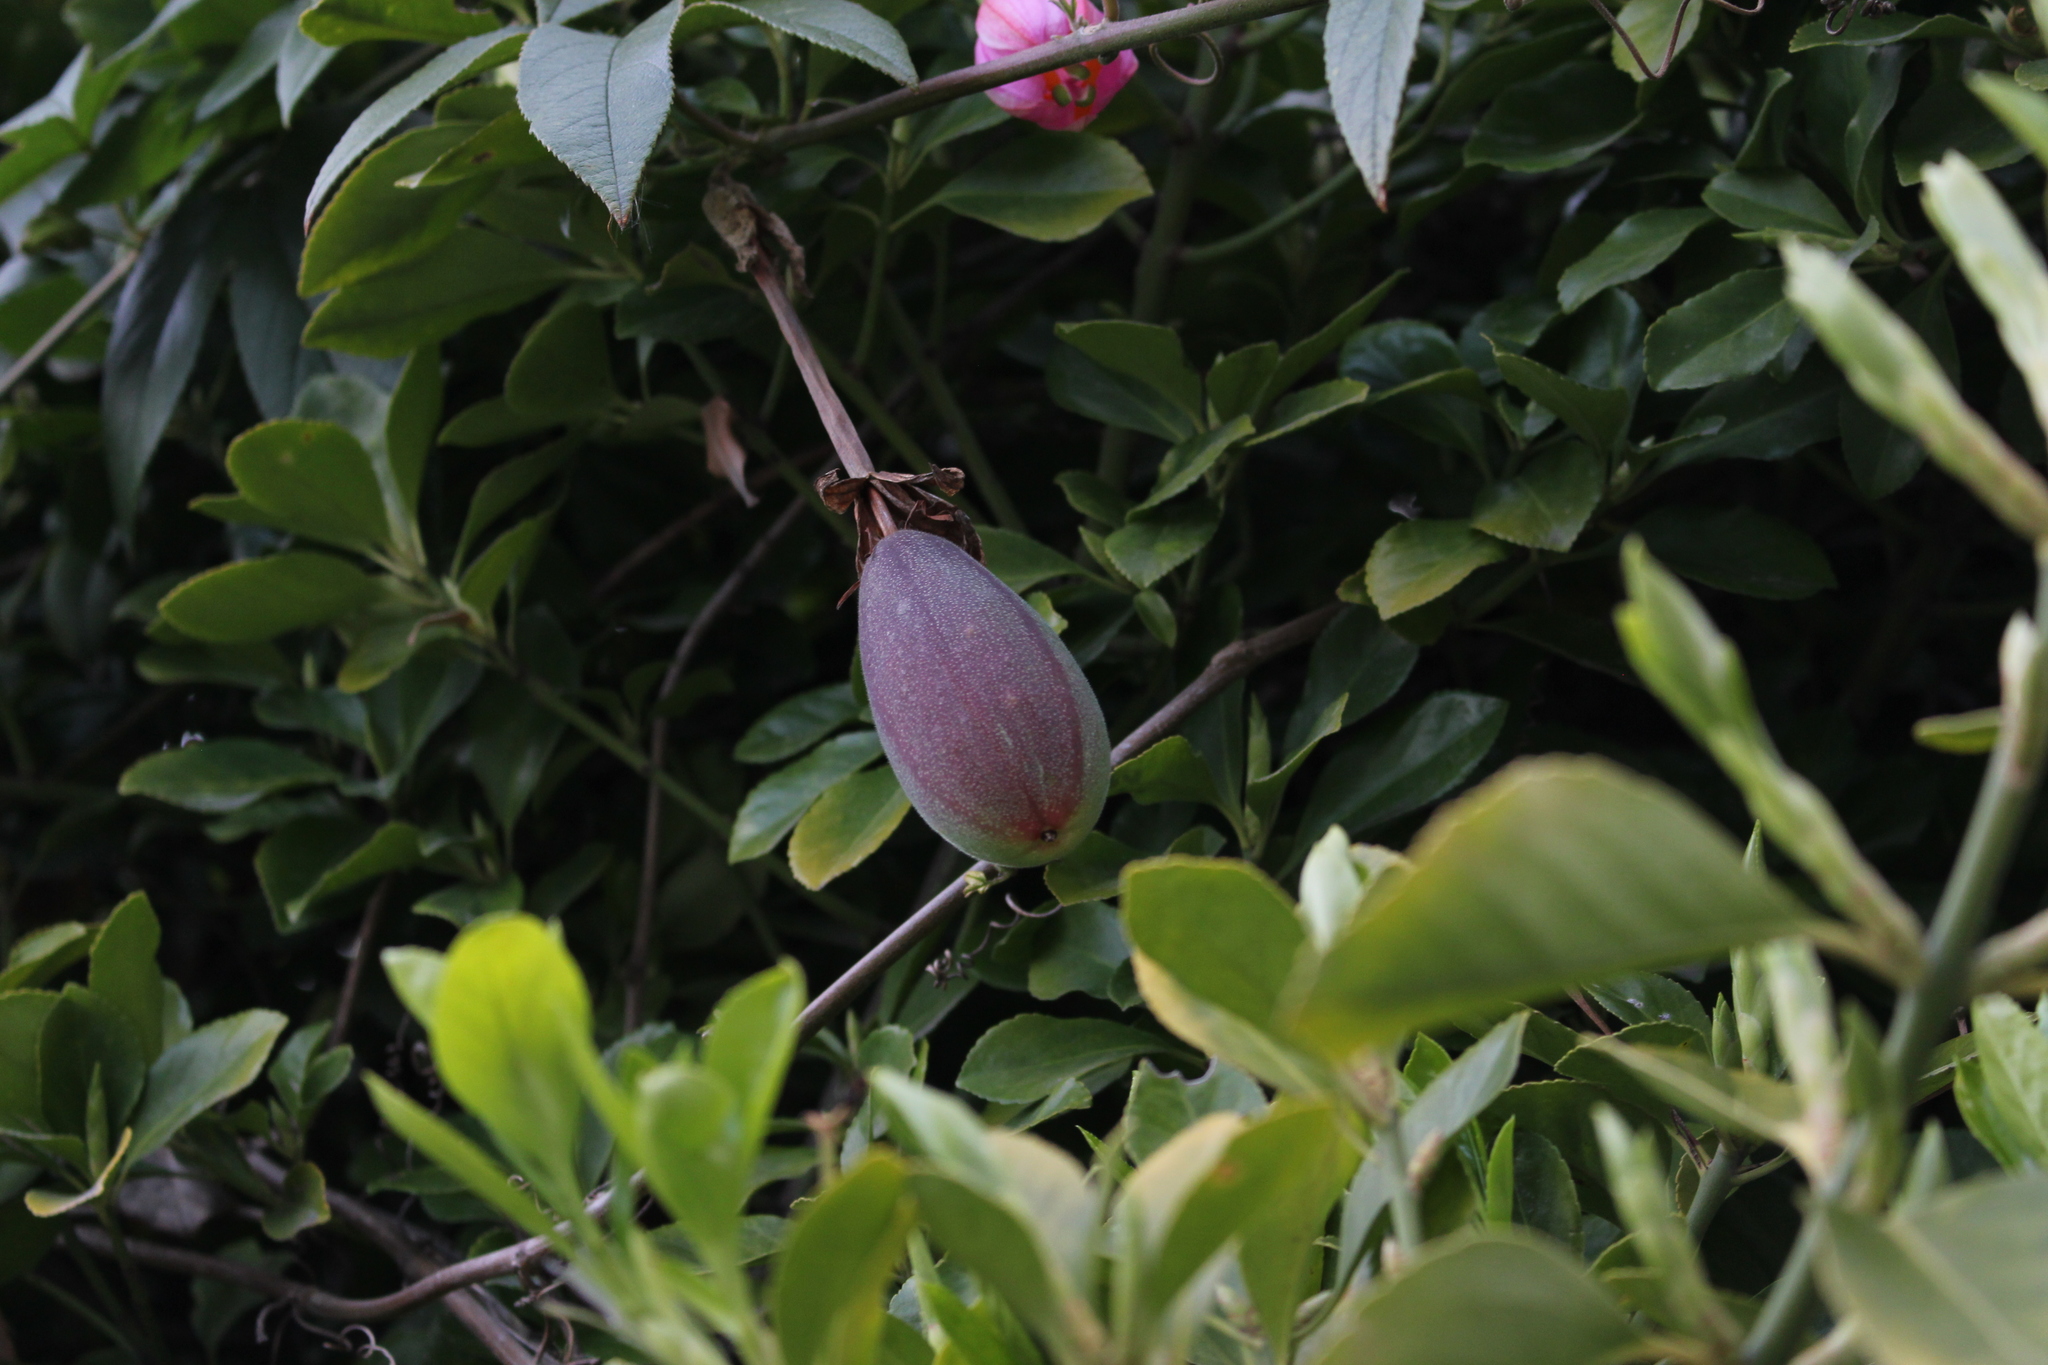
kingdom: Plantae
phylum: Tracheophyta
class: Magnoliopsida
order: Malpighiales
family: Passifloraceae
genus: Passiflora
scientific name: Passiflora tripartita
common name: Banana poka
